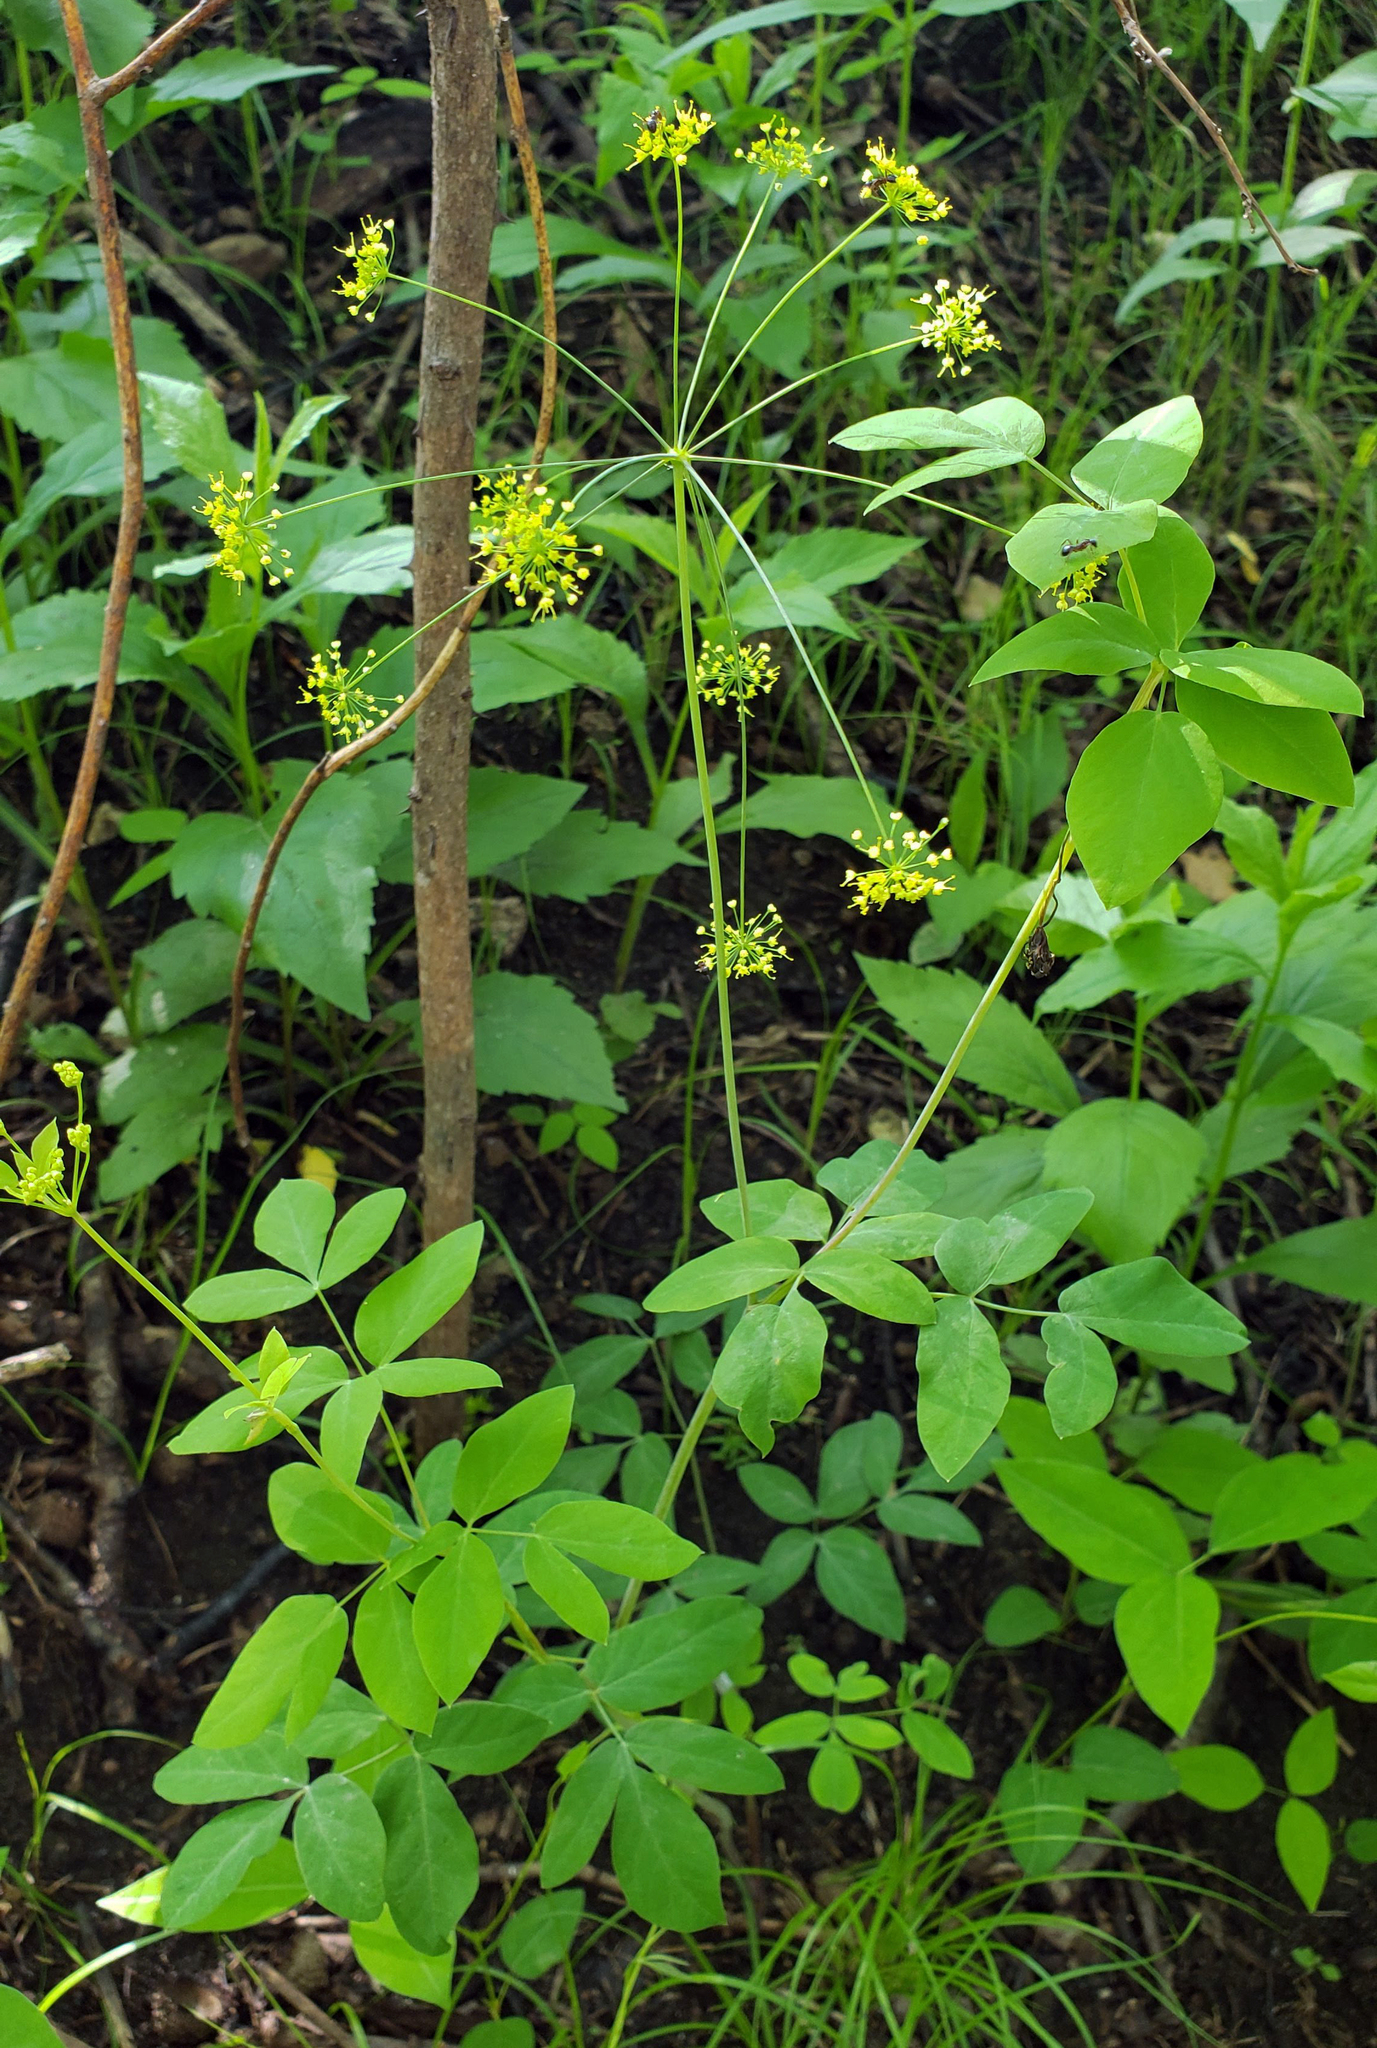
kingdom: Plantae
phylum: Tracheophyta
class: Magnoliopsida
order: Apiales
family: Apiaceae
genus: Taenidia
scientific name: Taenidia integerrima
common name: Golden alexander
